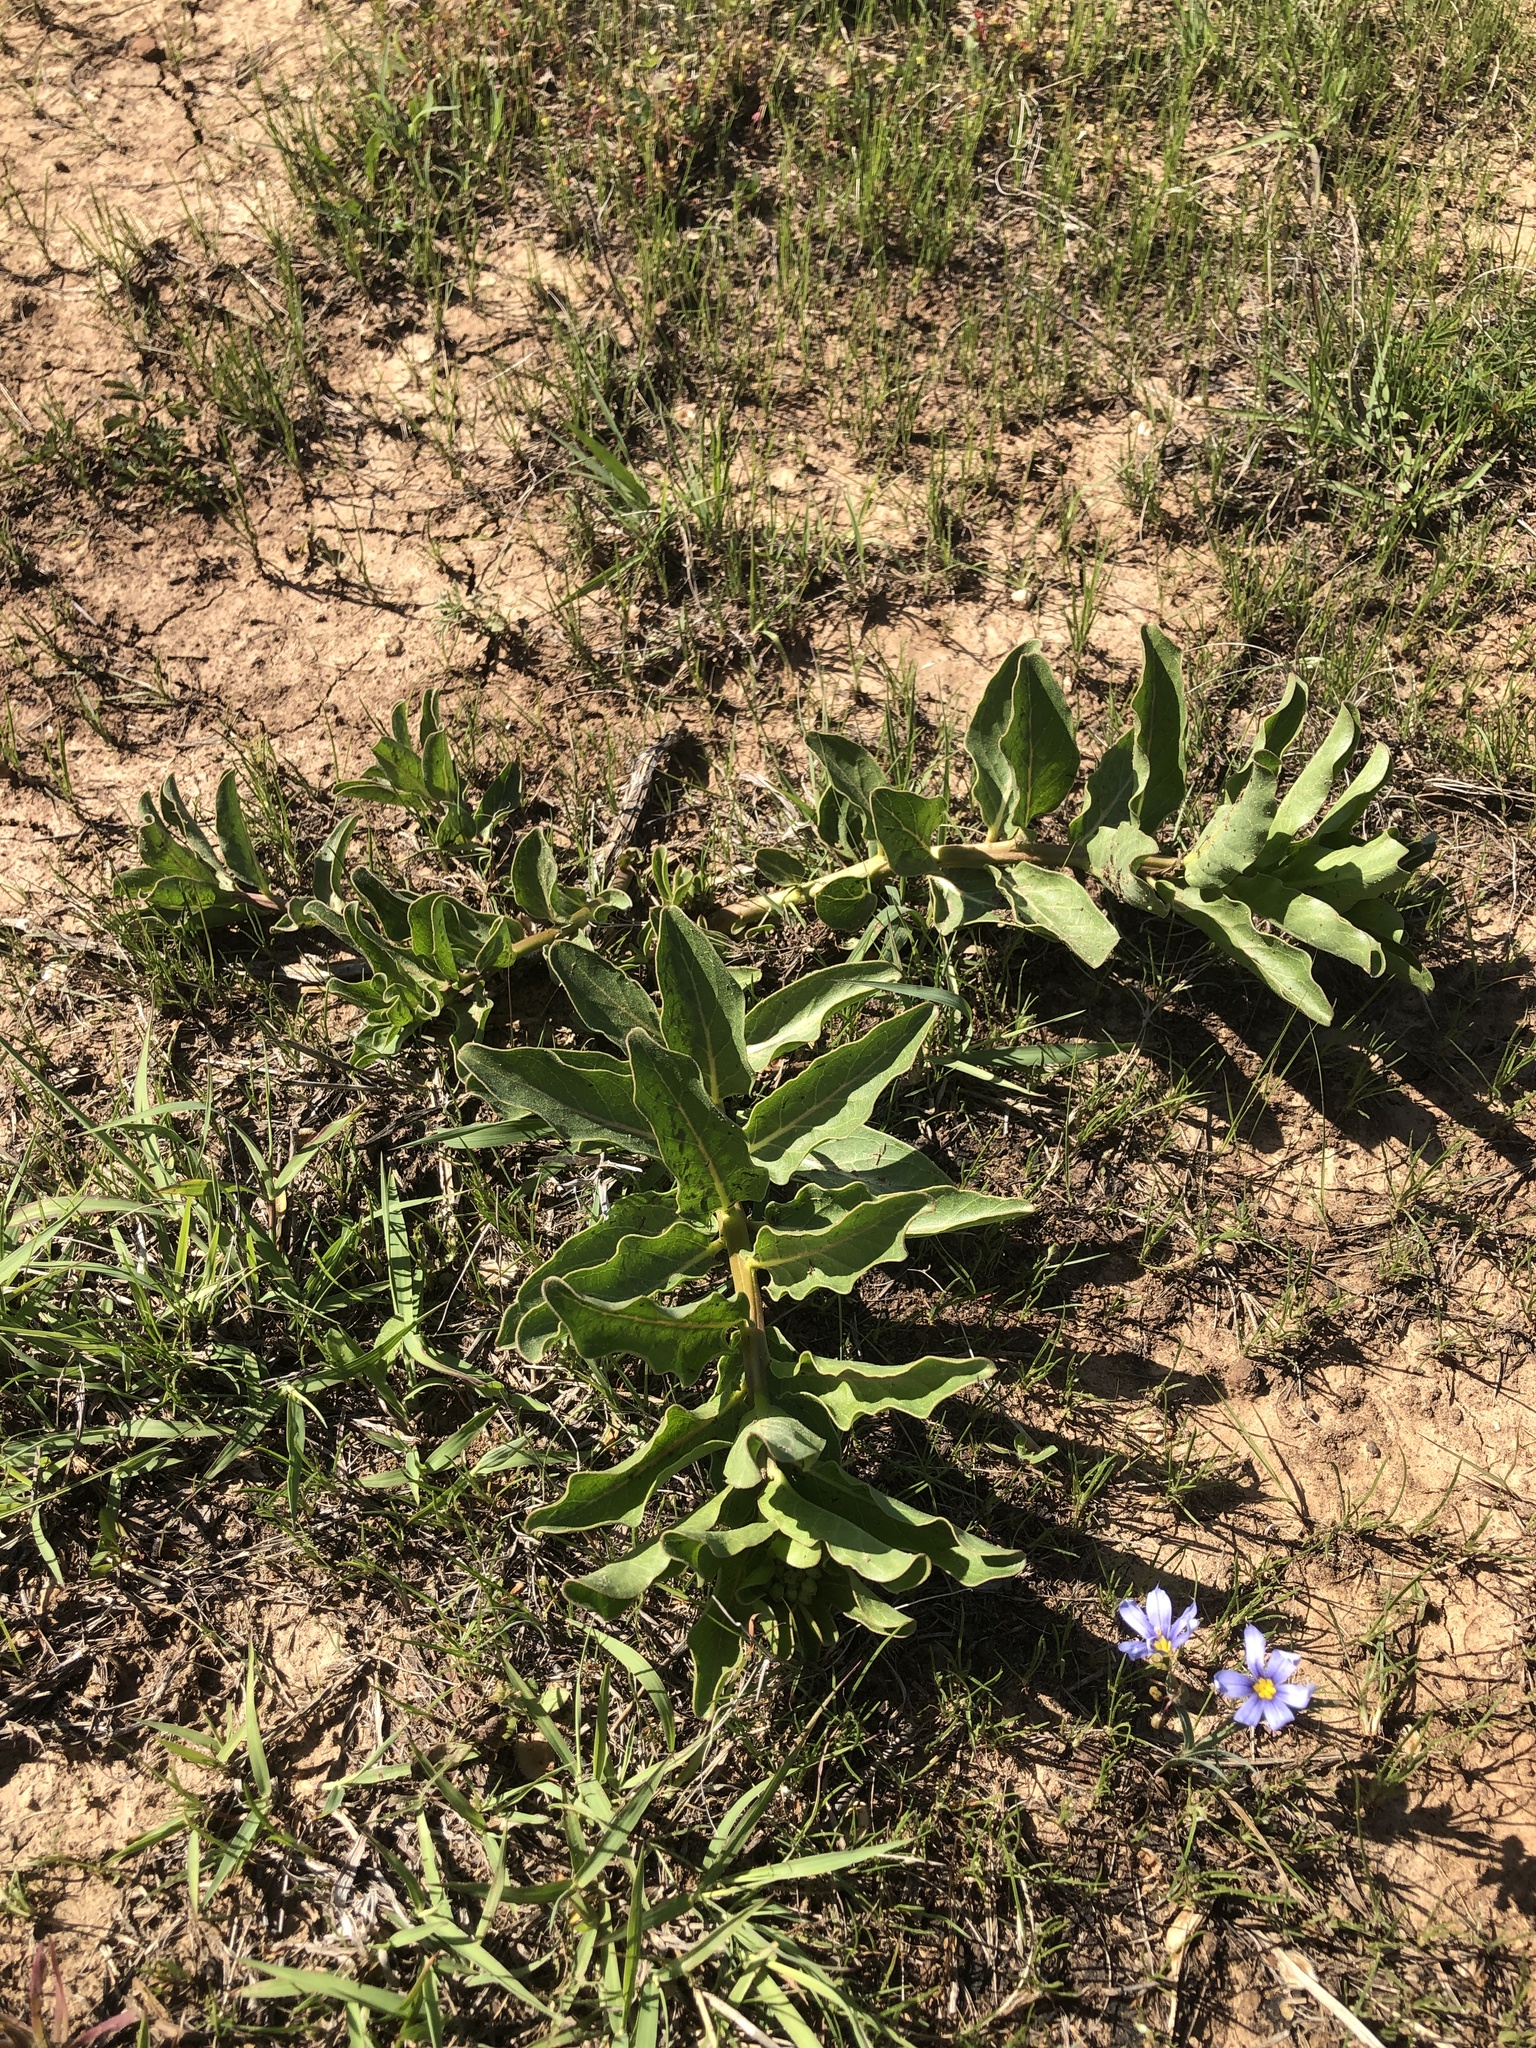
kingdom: Plantae
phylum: Tracheophyta
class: Magnoliopsida
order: Gentianales
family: Apocynaceae
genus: Asclepias
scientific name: Asclepias viridis
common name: Antelope-horns
